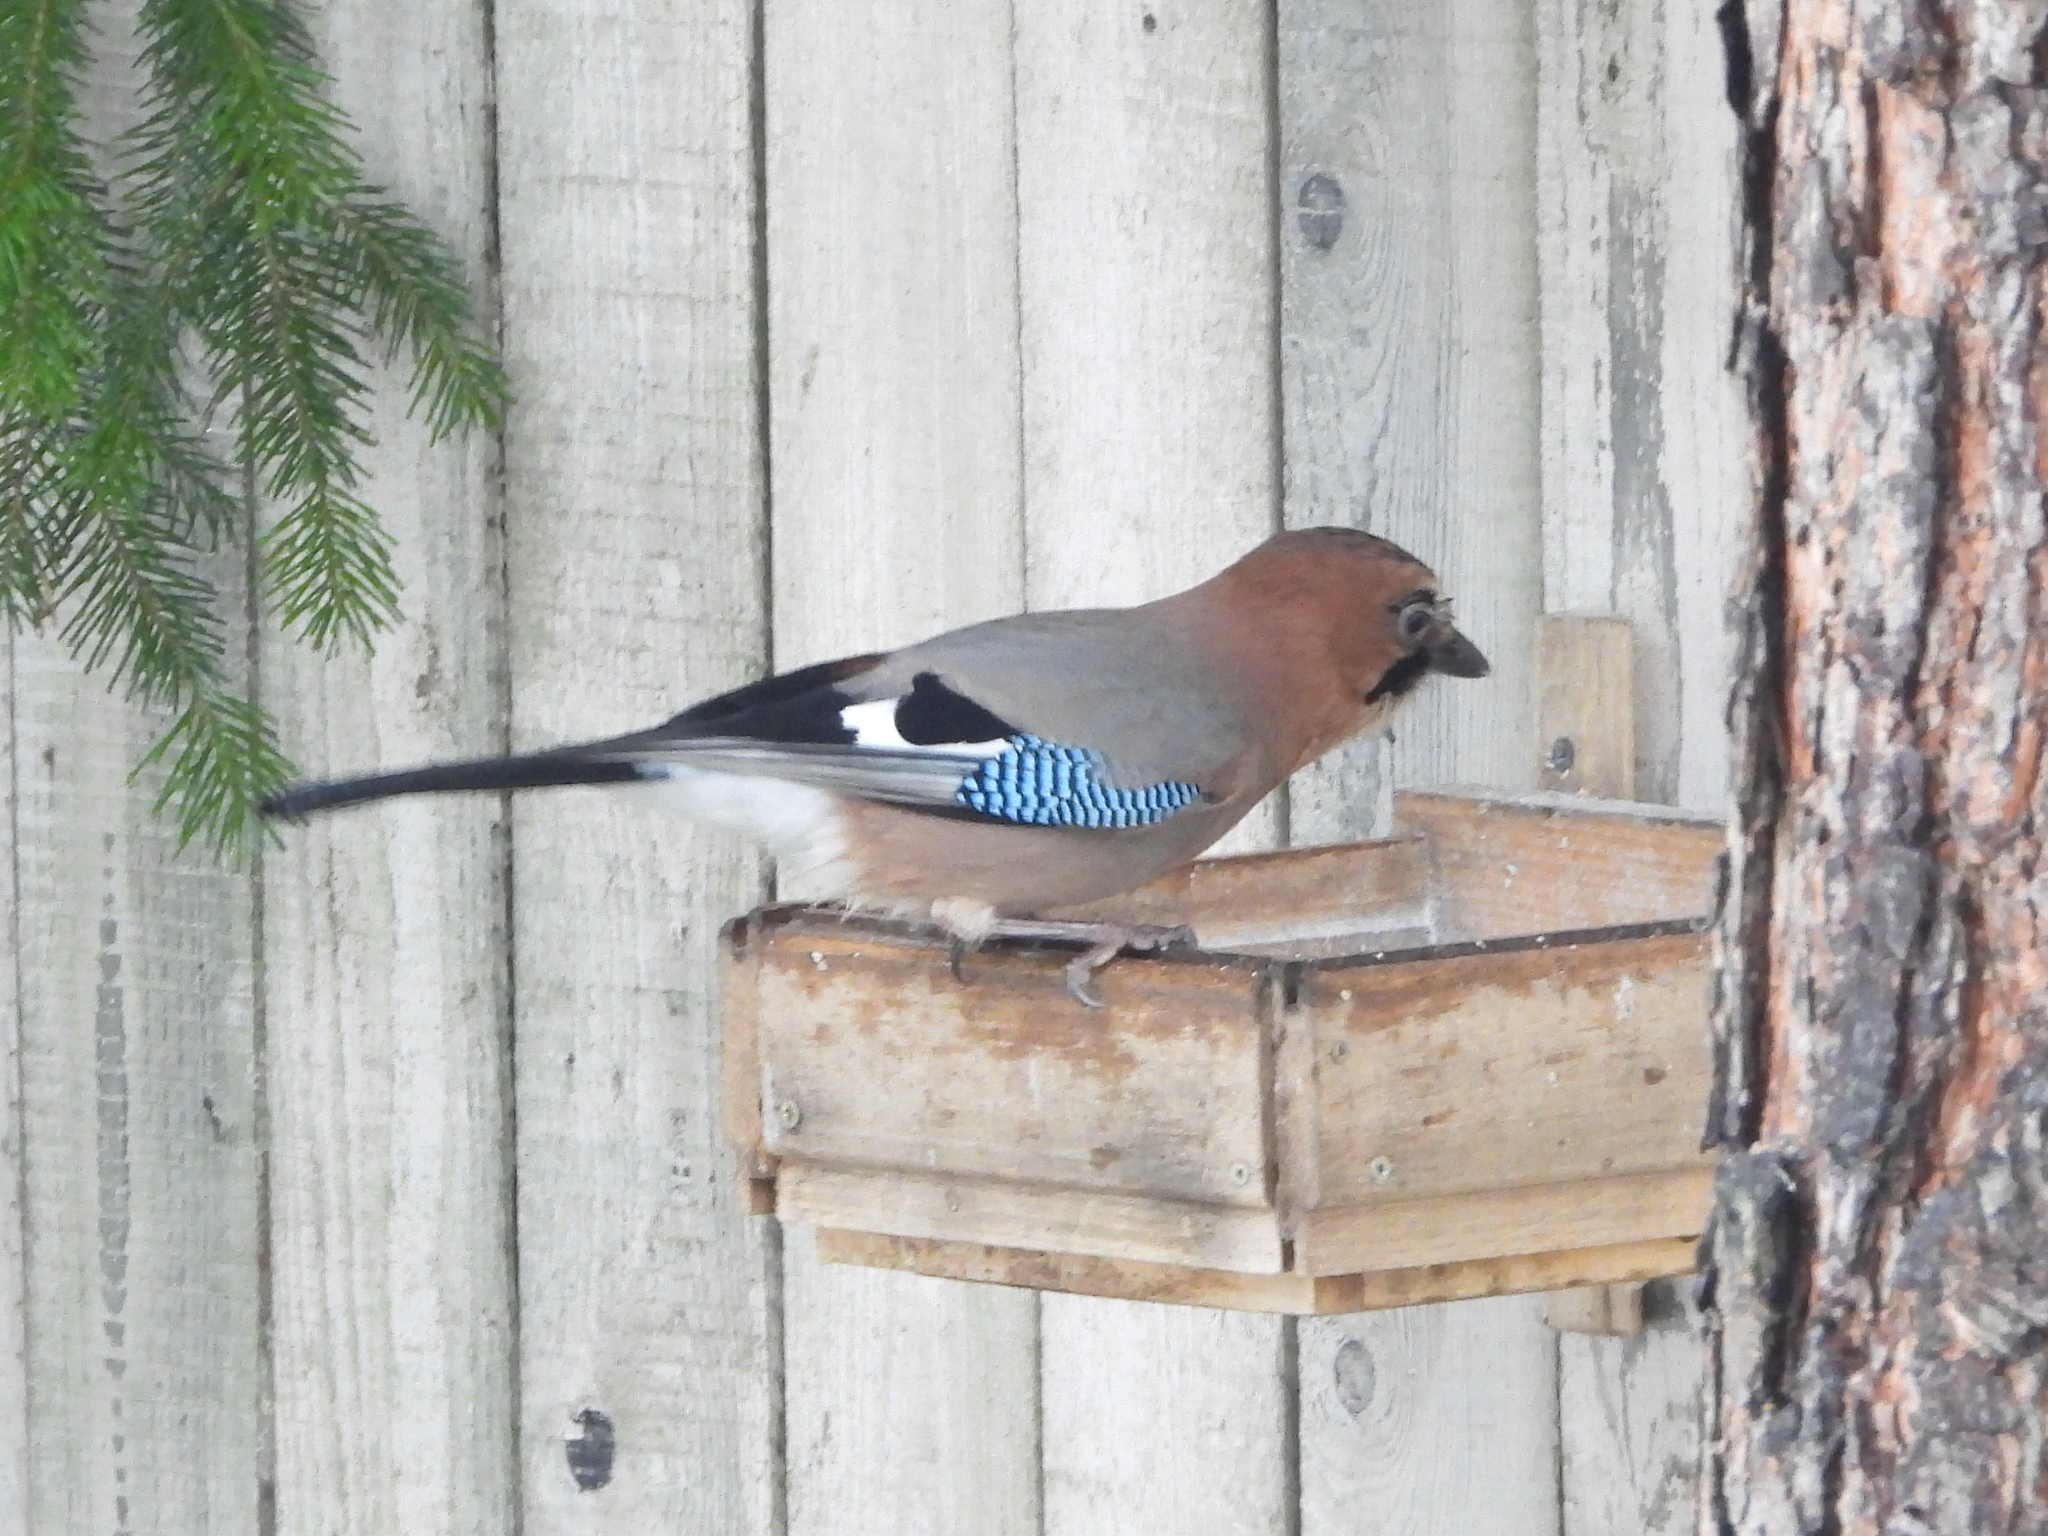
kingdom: Animalia
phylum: Chordata
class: Aves
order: Passeriformes
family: Corvidae
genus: Garrulus
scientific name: Garrulus glandarius
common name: Eurasian jay
